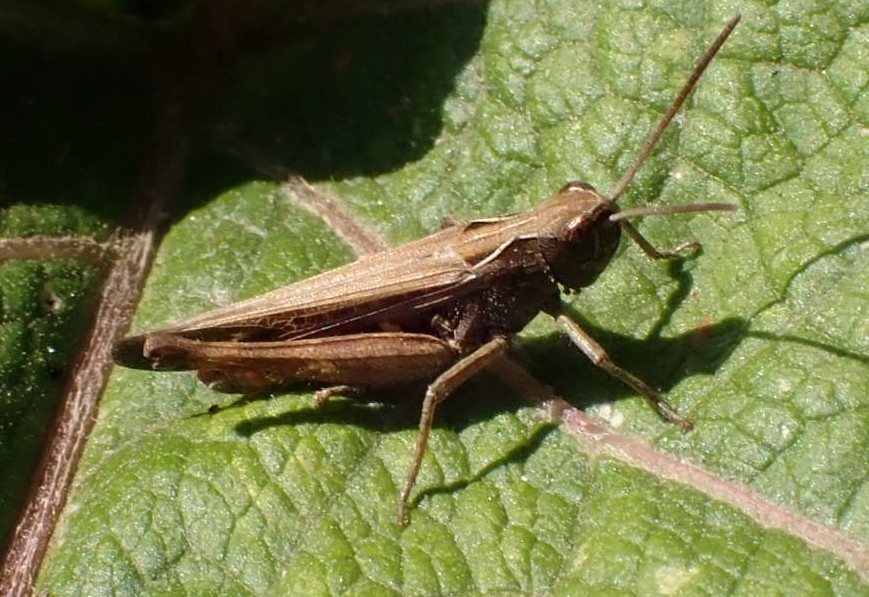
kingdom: Animalia
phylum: Arthropoda
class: Insecta
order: Orthoptera
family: Acrididae
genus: Omocestus
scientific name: Omocestus rufipes
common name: Woodland grasshopper
